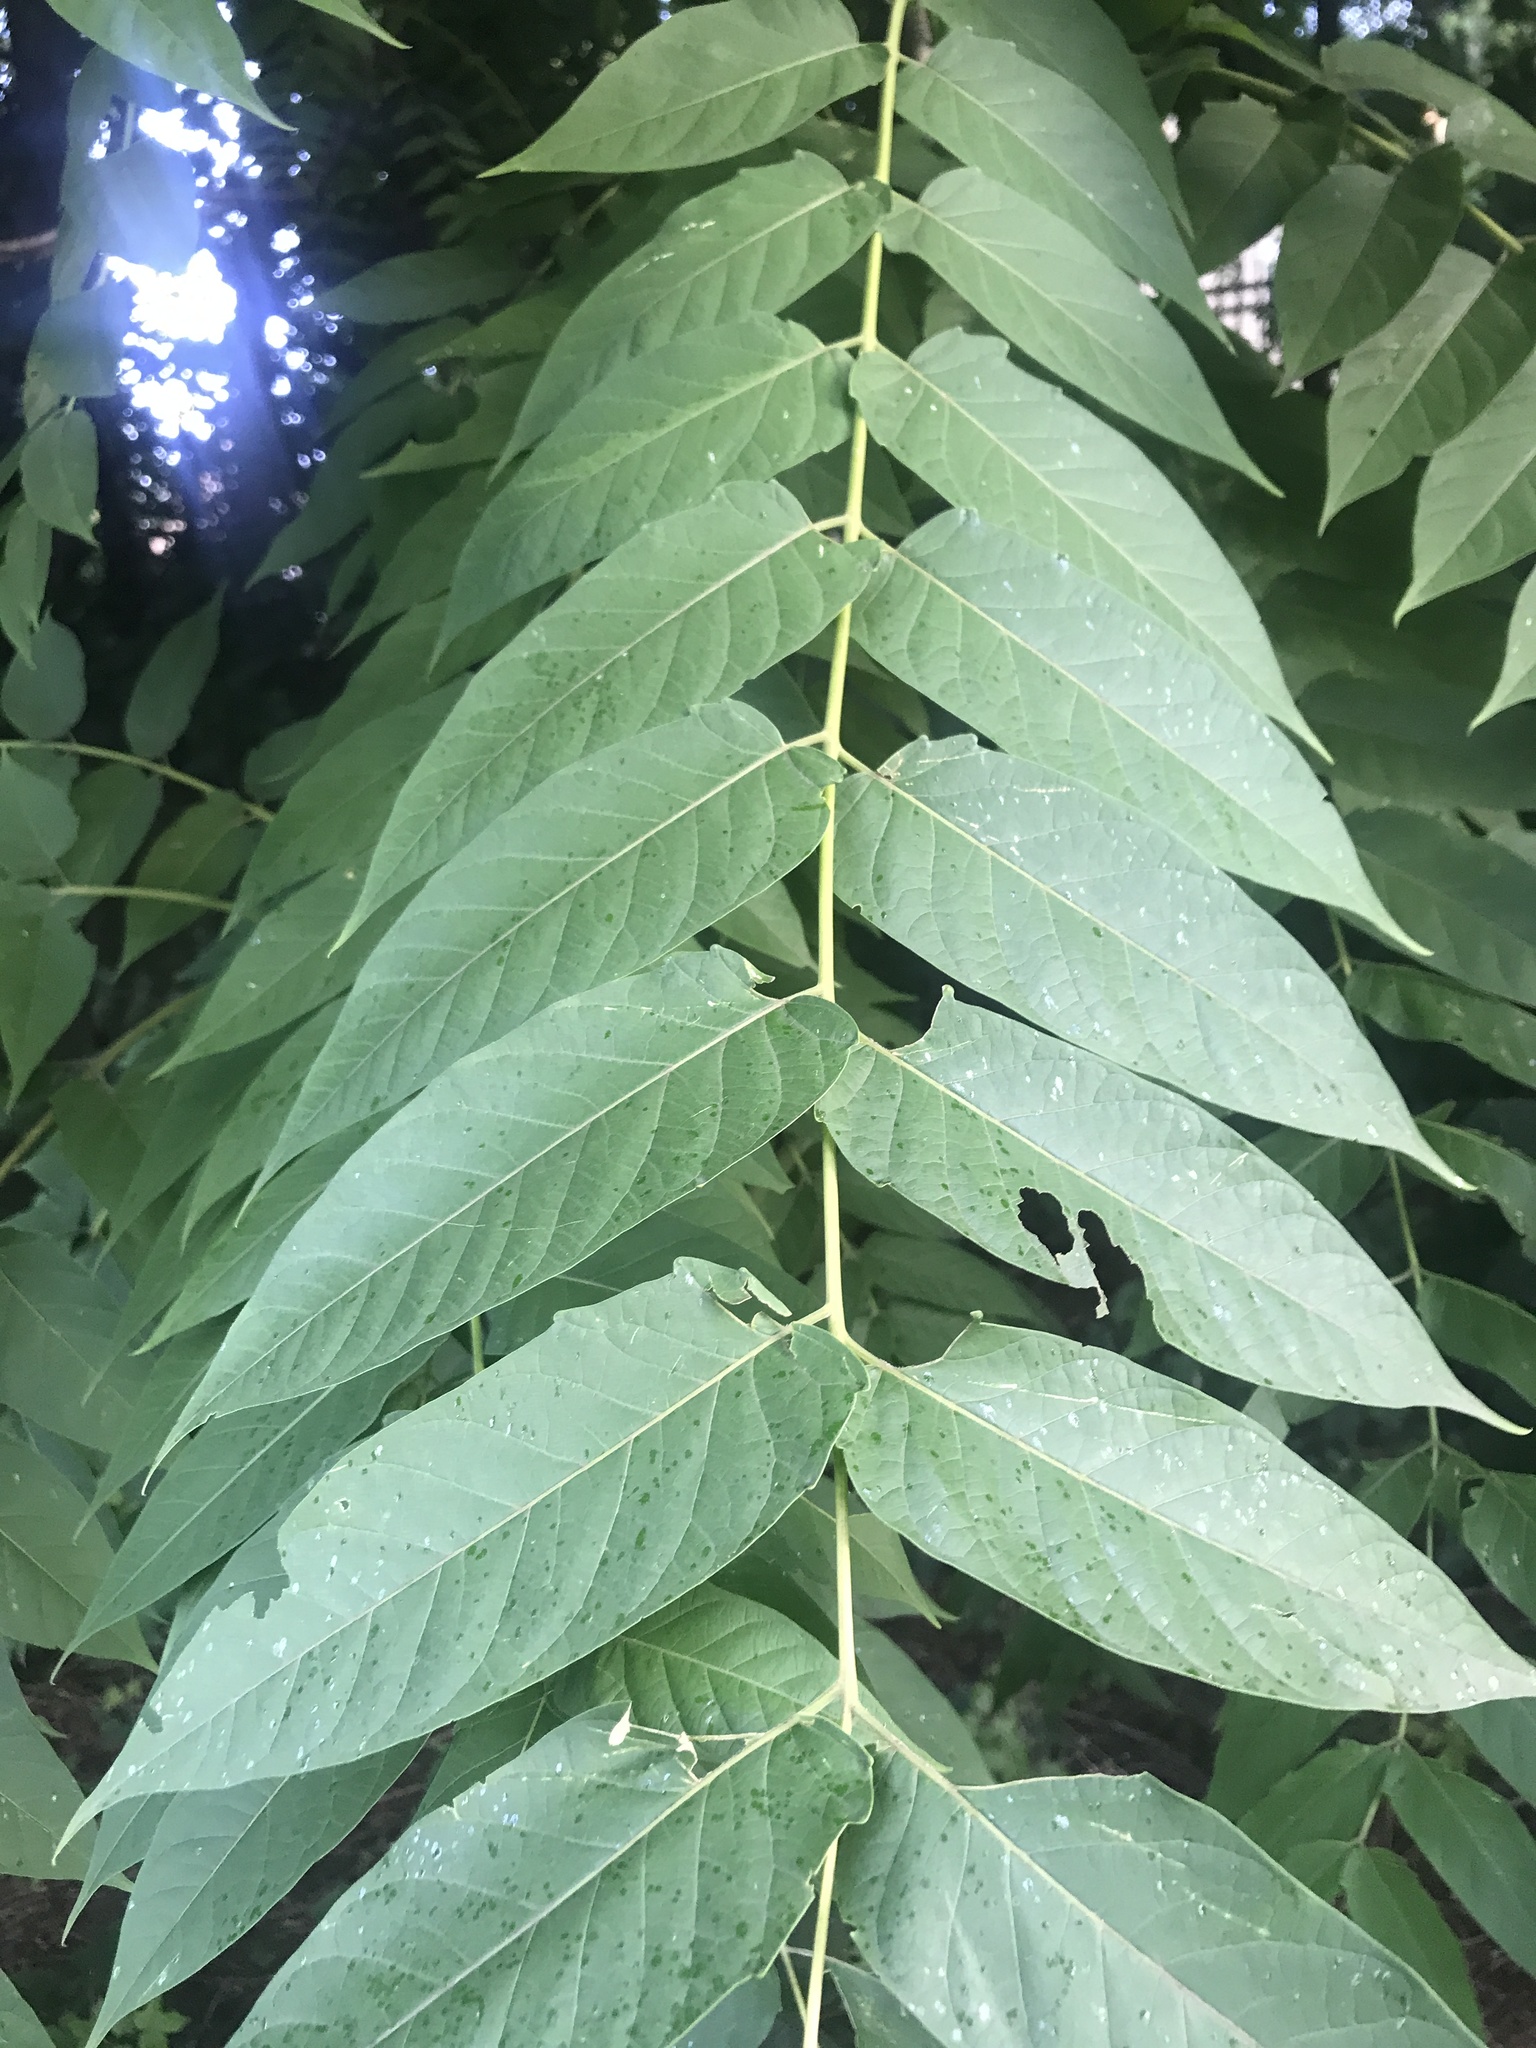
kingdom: Plantae
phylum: Tracheophyta
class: Magnoliopsida
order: Sapindales
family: Simaroubaceae
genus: Ailanthus
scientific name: Ailanthus altissima
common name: Tree-of-heaven
